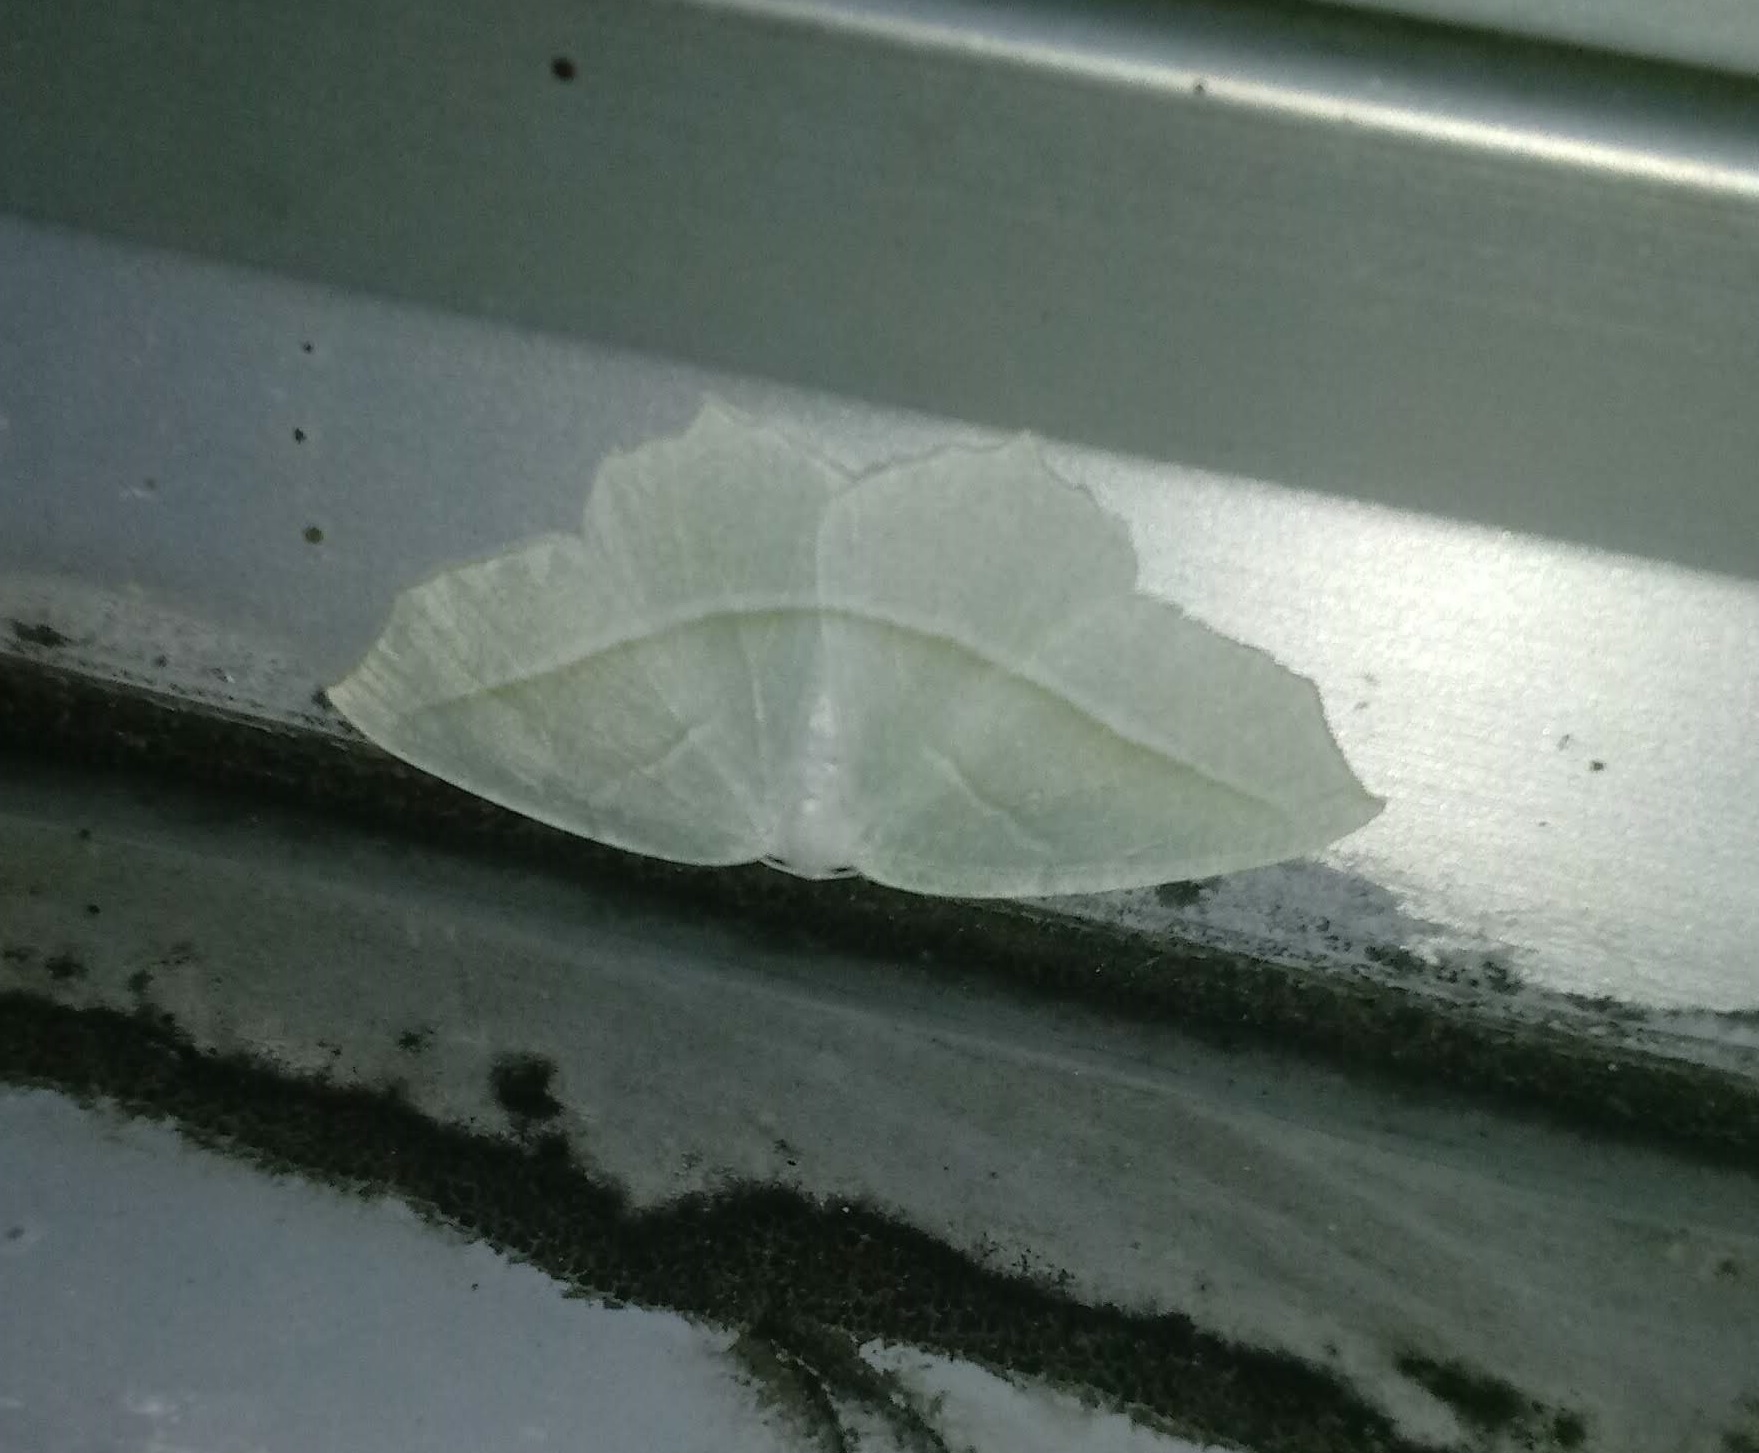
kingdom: Animalia
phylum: Arthropoda
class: Insecta
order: Lepidoptera
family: Geometridae
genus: Campaea
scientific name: Campaea perlata
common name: Fringed looper
